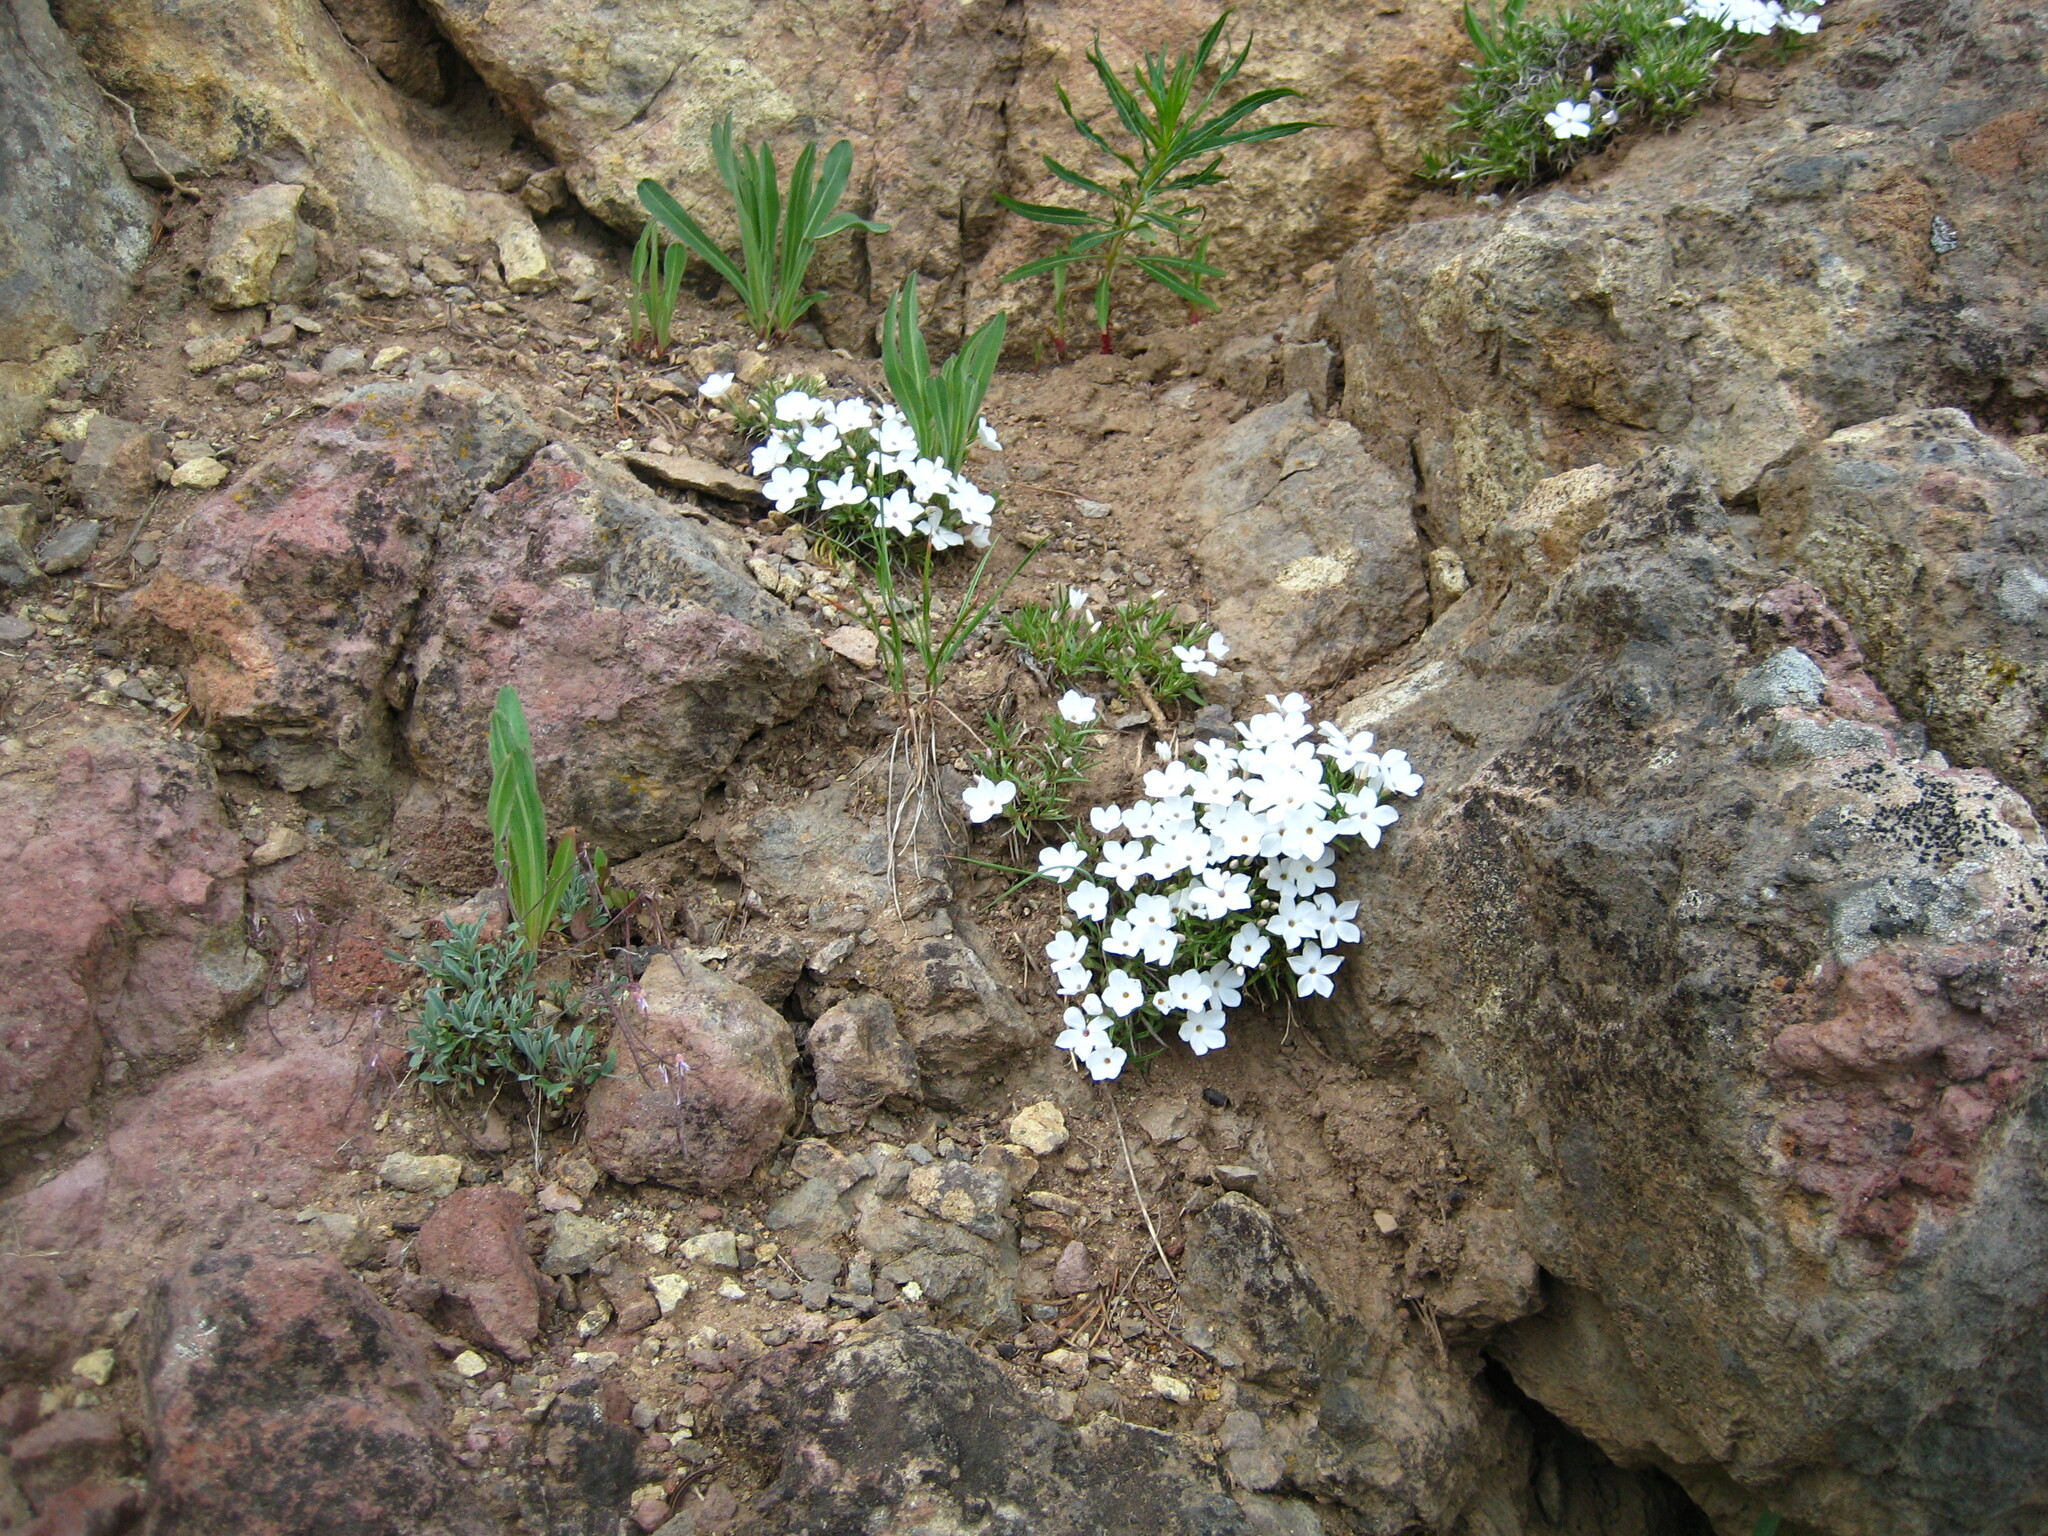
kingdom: Plantae
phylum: Tracheophyta
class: Magnoliopsida
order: Ericales
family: Polemoniaceae
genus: Phlox
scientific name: Phlox multiflora
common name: Rocky mountain phlox
